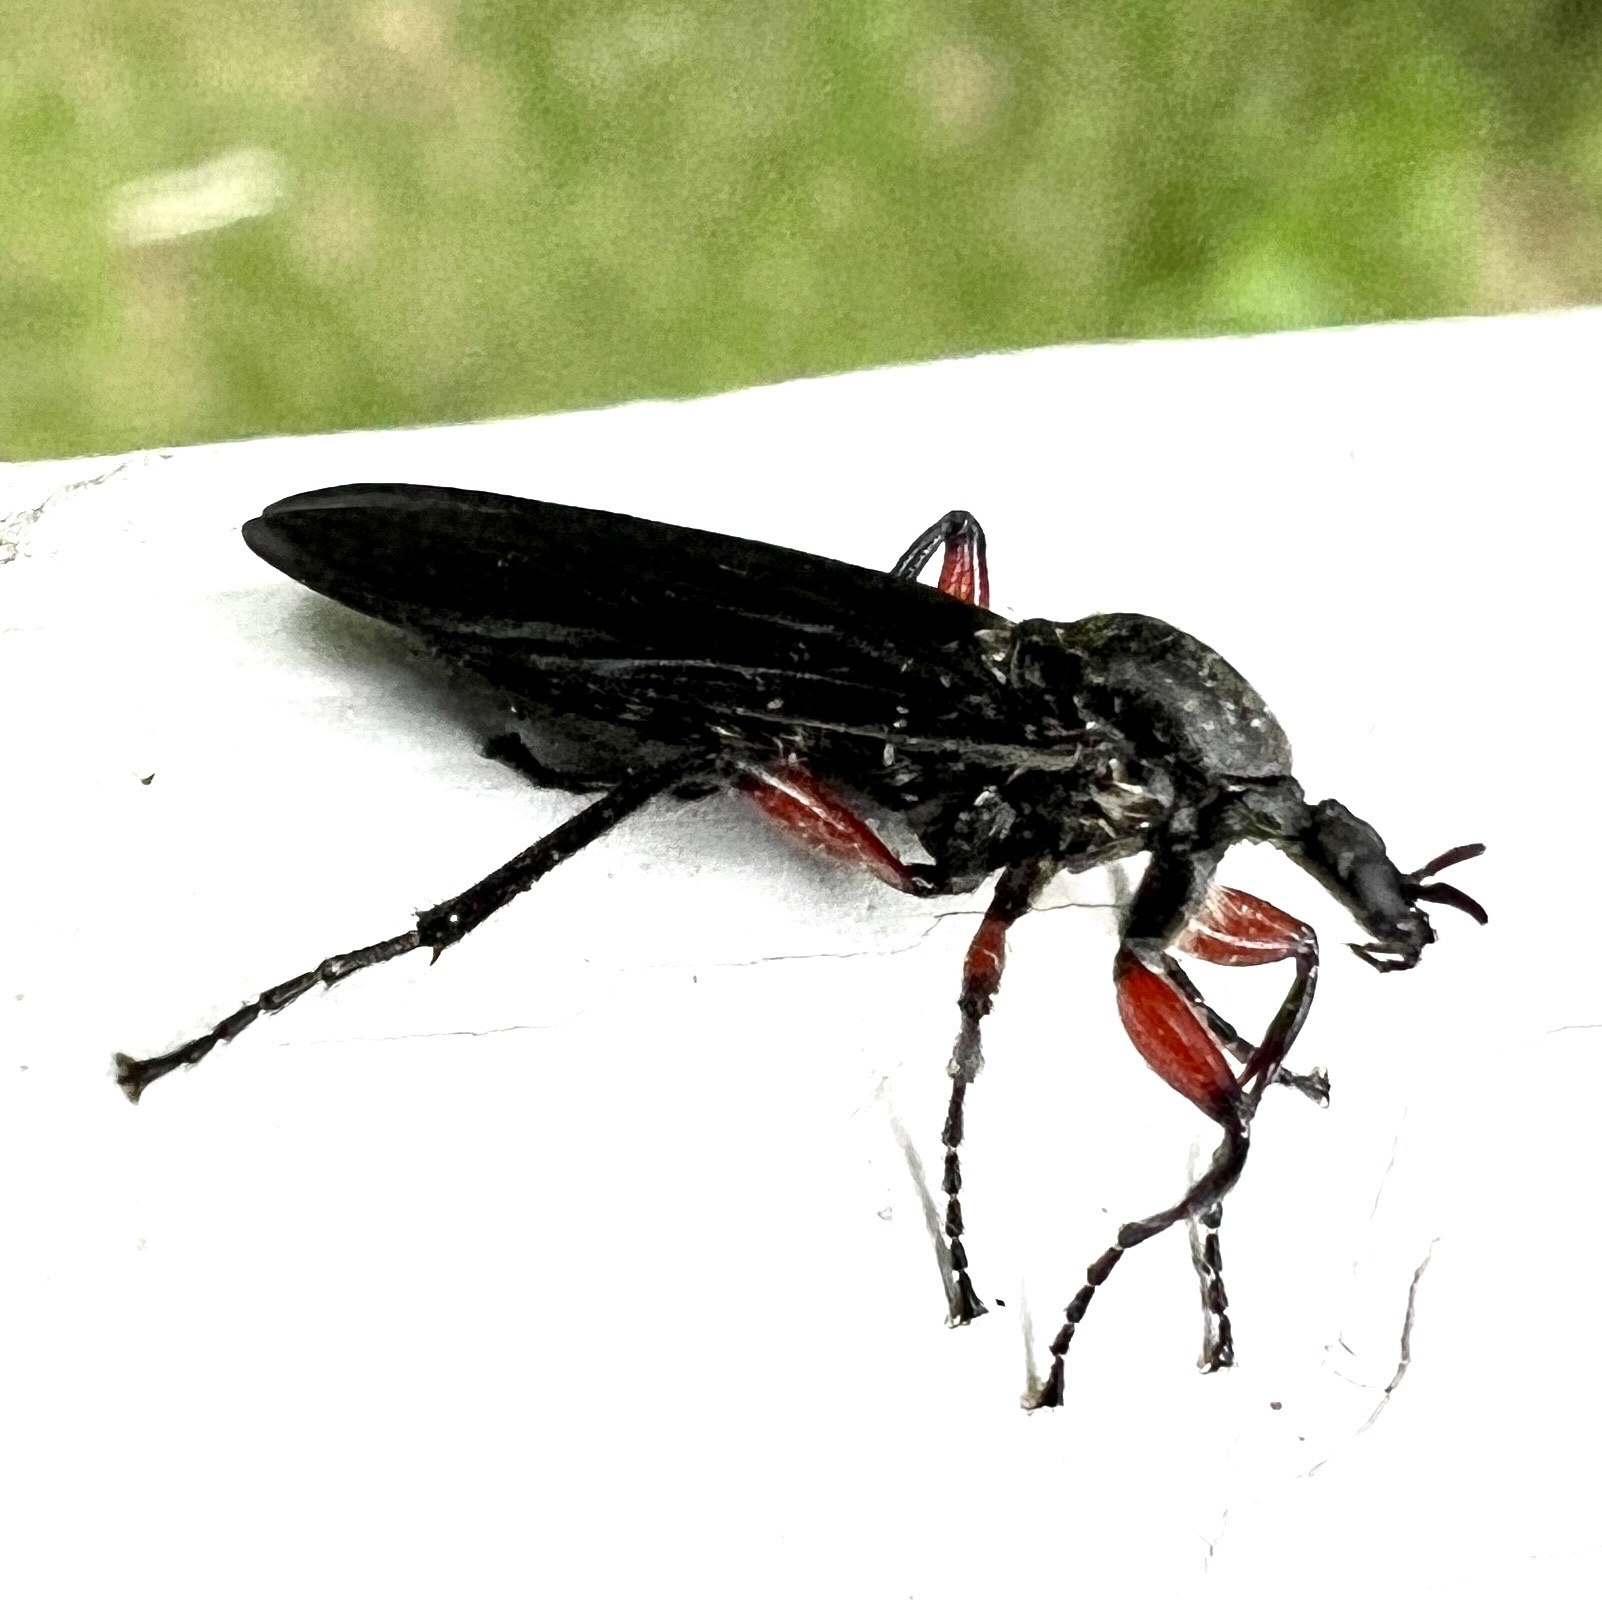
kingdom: Animalia
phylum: Arthropoda
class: Insecta
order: Diptera
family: Bibionidae
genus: Bibio
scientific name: Bibio femoratus
